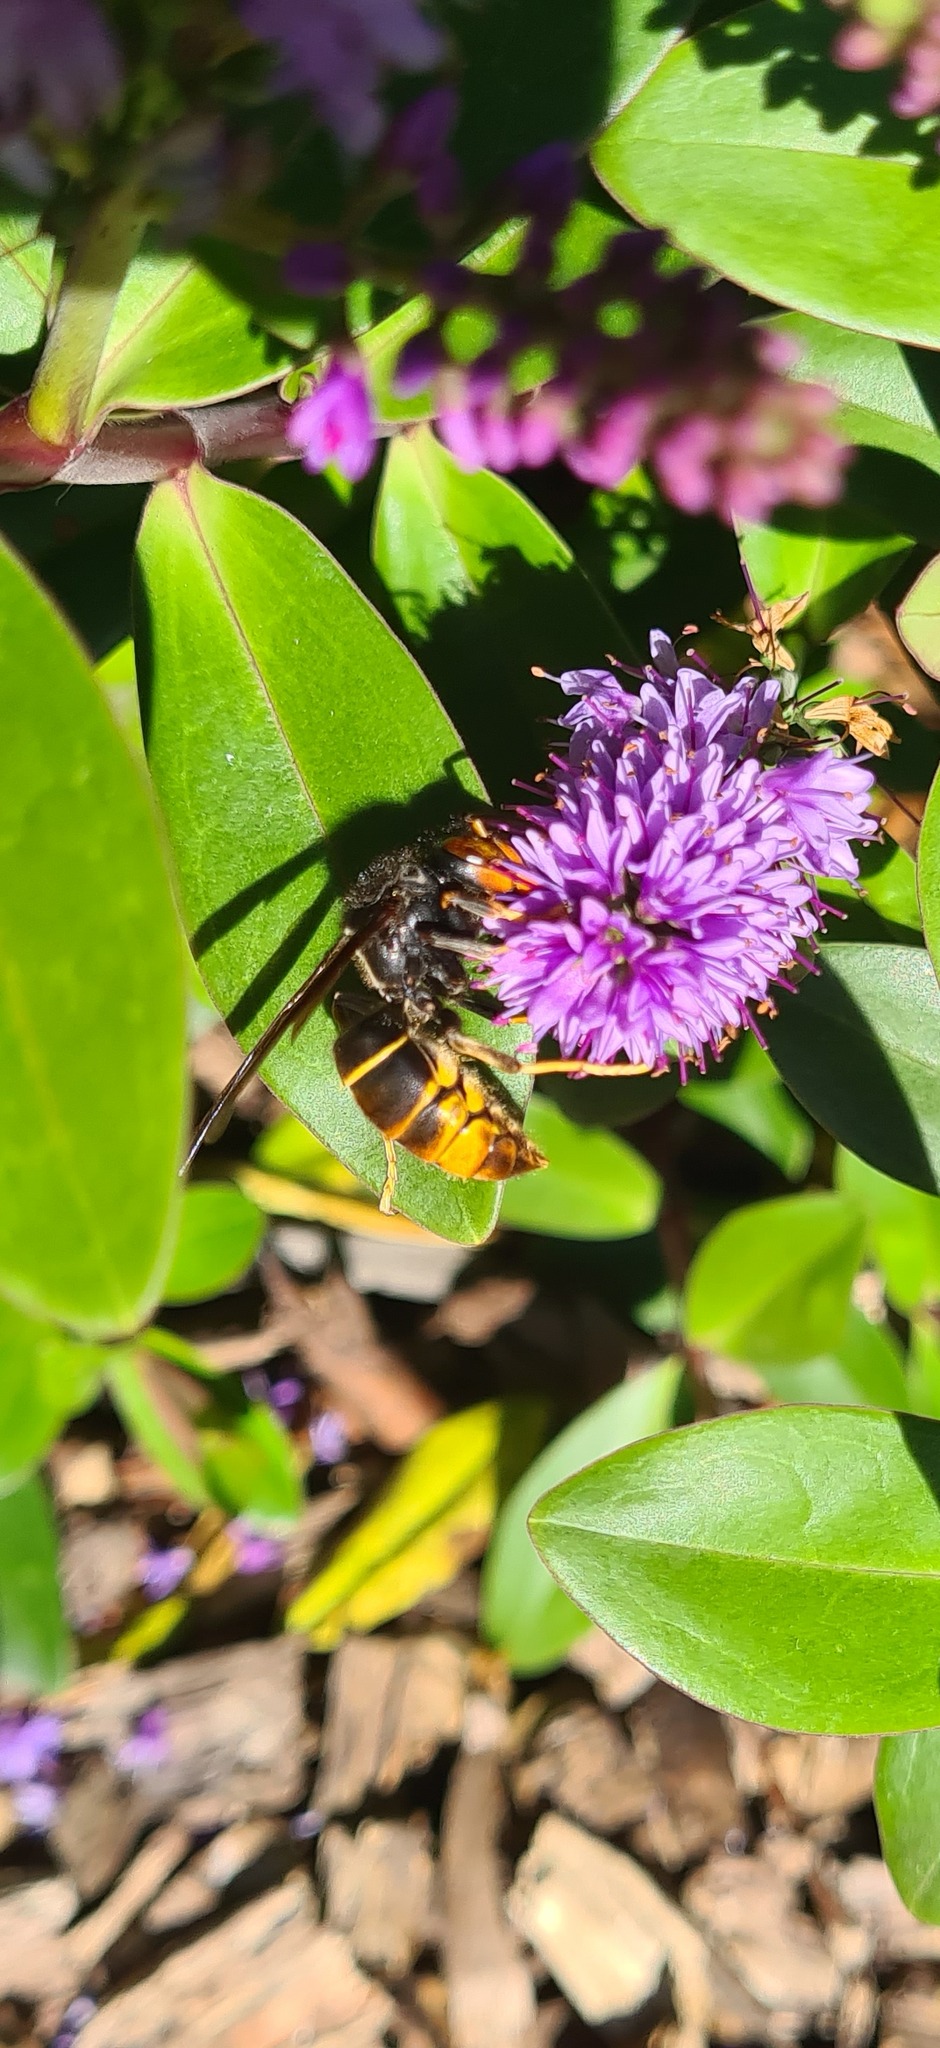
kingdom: Animalia
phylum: Arthropoda
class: Insecta
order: Hymenoptera
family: Vespidae
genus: Vespa
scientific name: Vespa velutina
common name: Asian hornet
